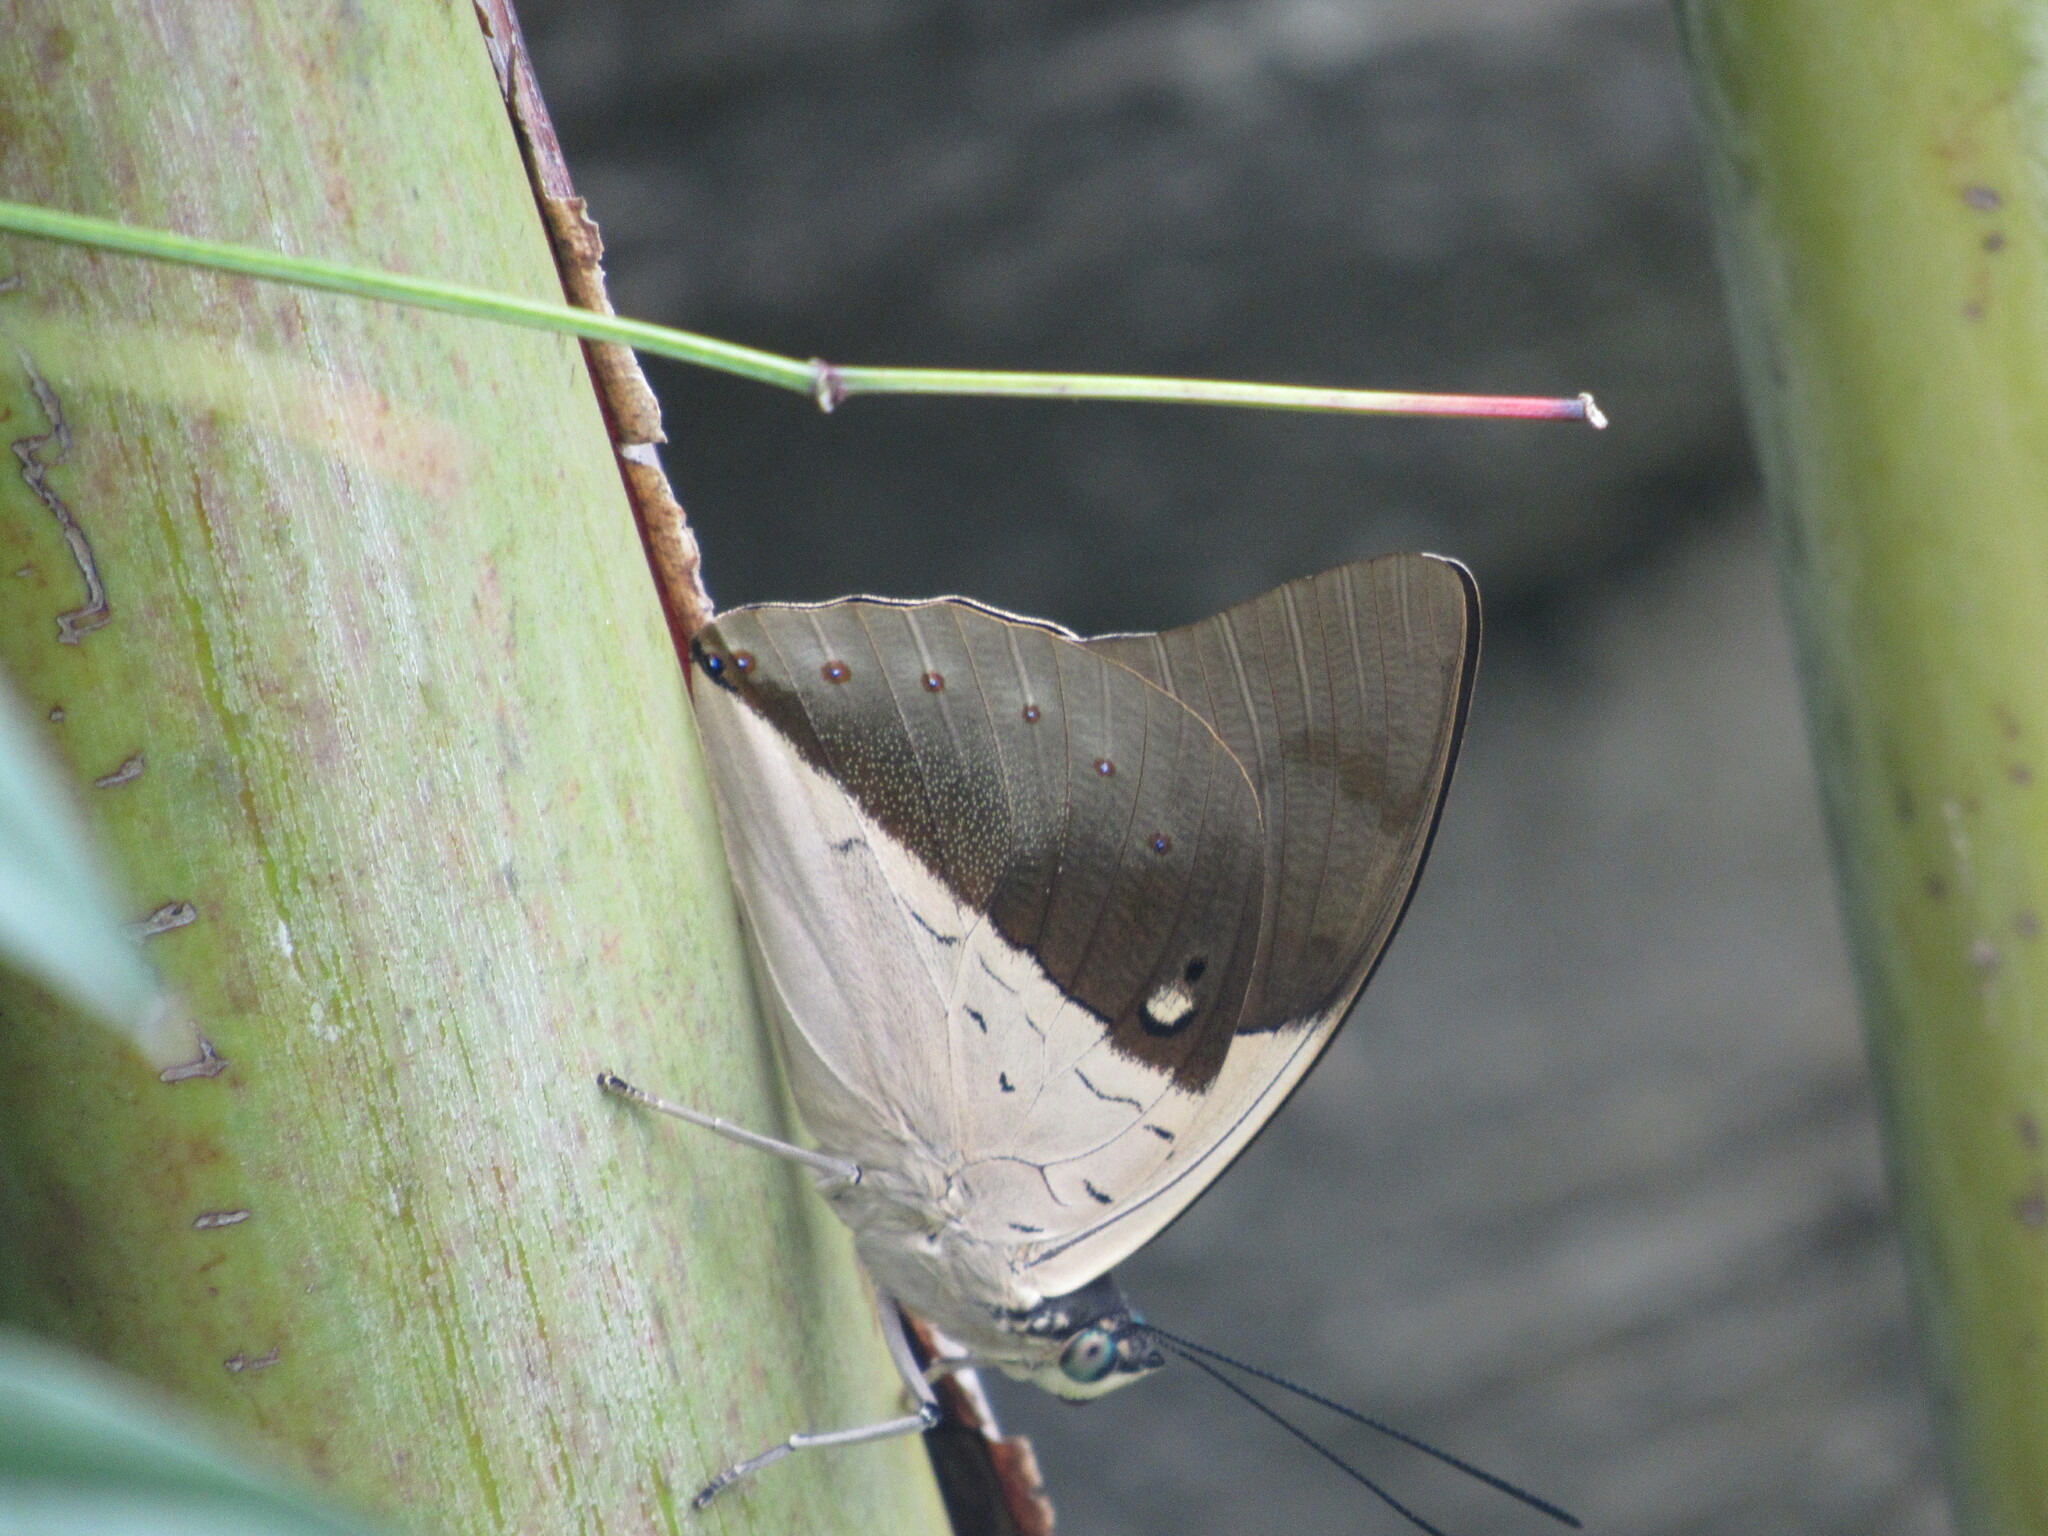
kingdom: Animalia
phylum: Arthropoda
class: Insecta
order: Lepidoptera
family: Nymphalidae
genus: Prepona
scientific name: Prepona meander
